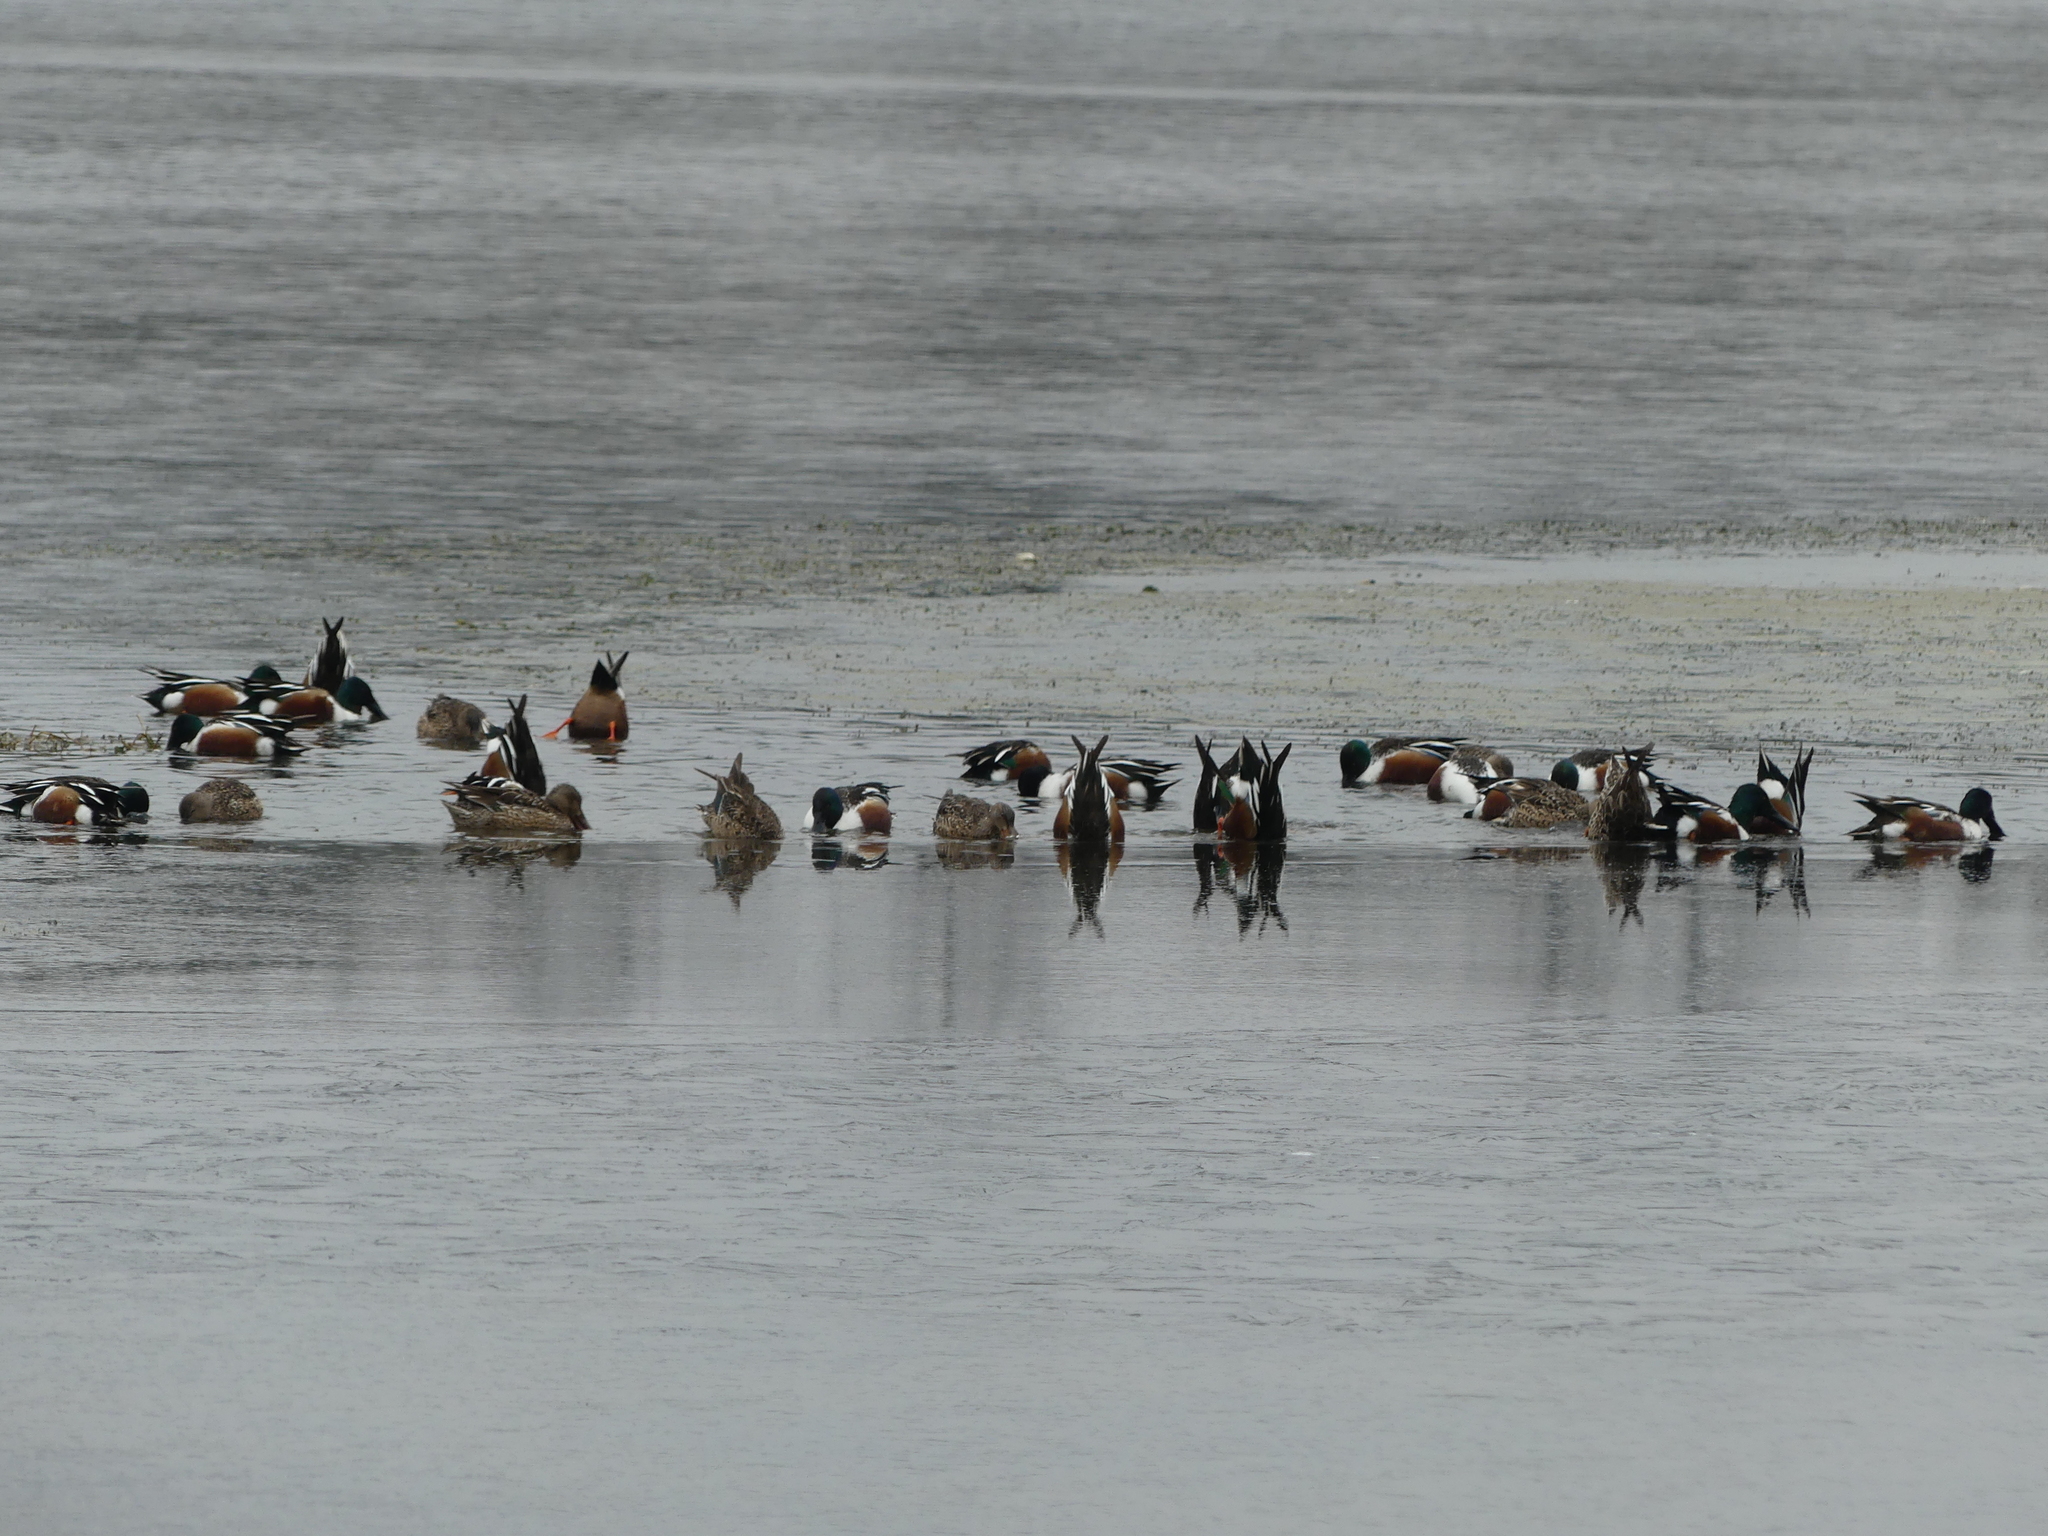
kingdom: Animalia
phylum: Chordata
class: Aves
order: Anseriformes
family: Anatidae
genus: Spatula
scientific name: Spatula clypeata
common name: Northern shoveler
